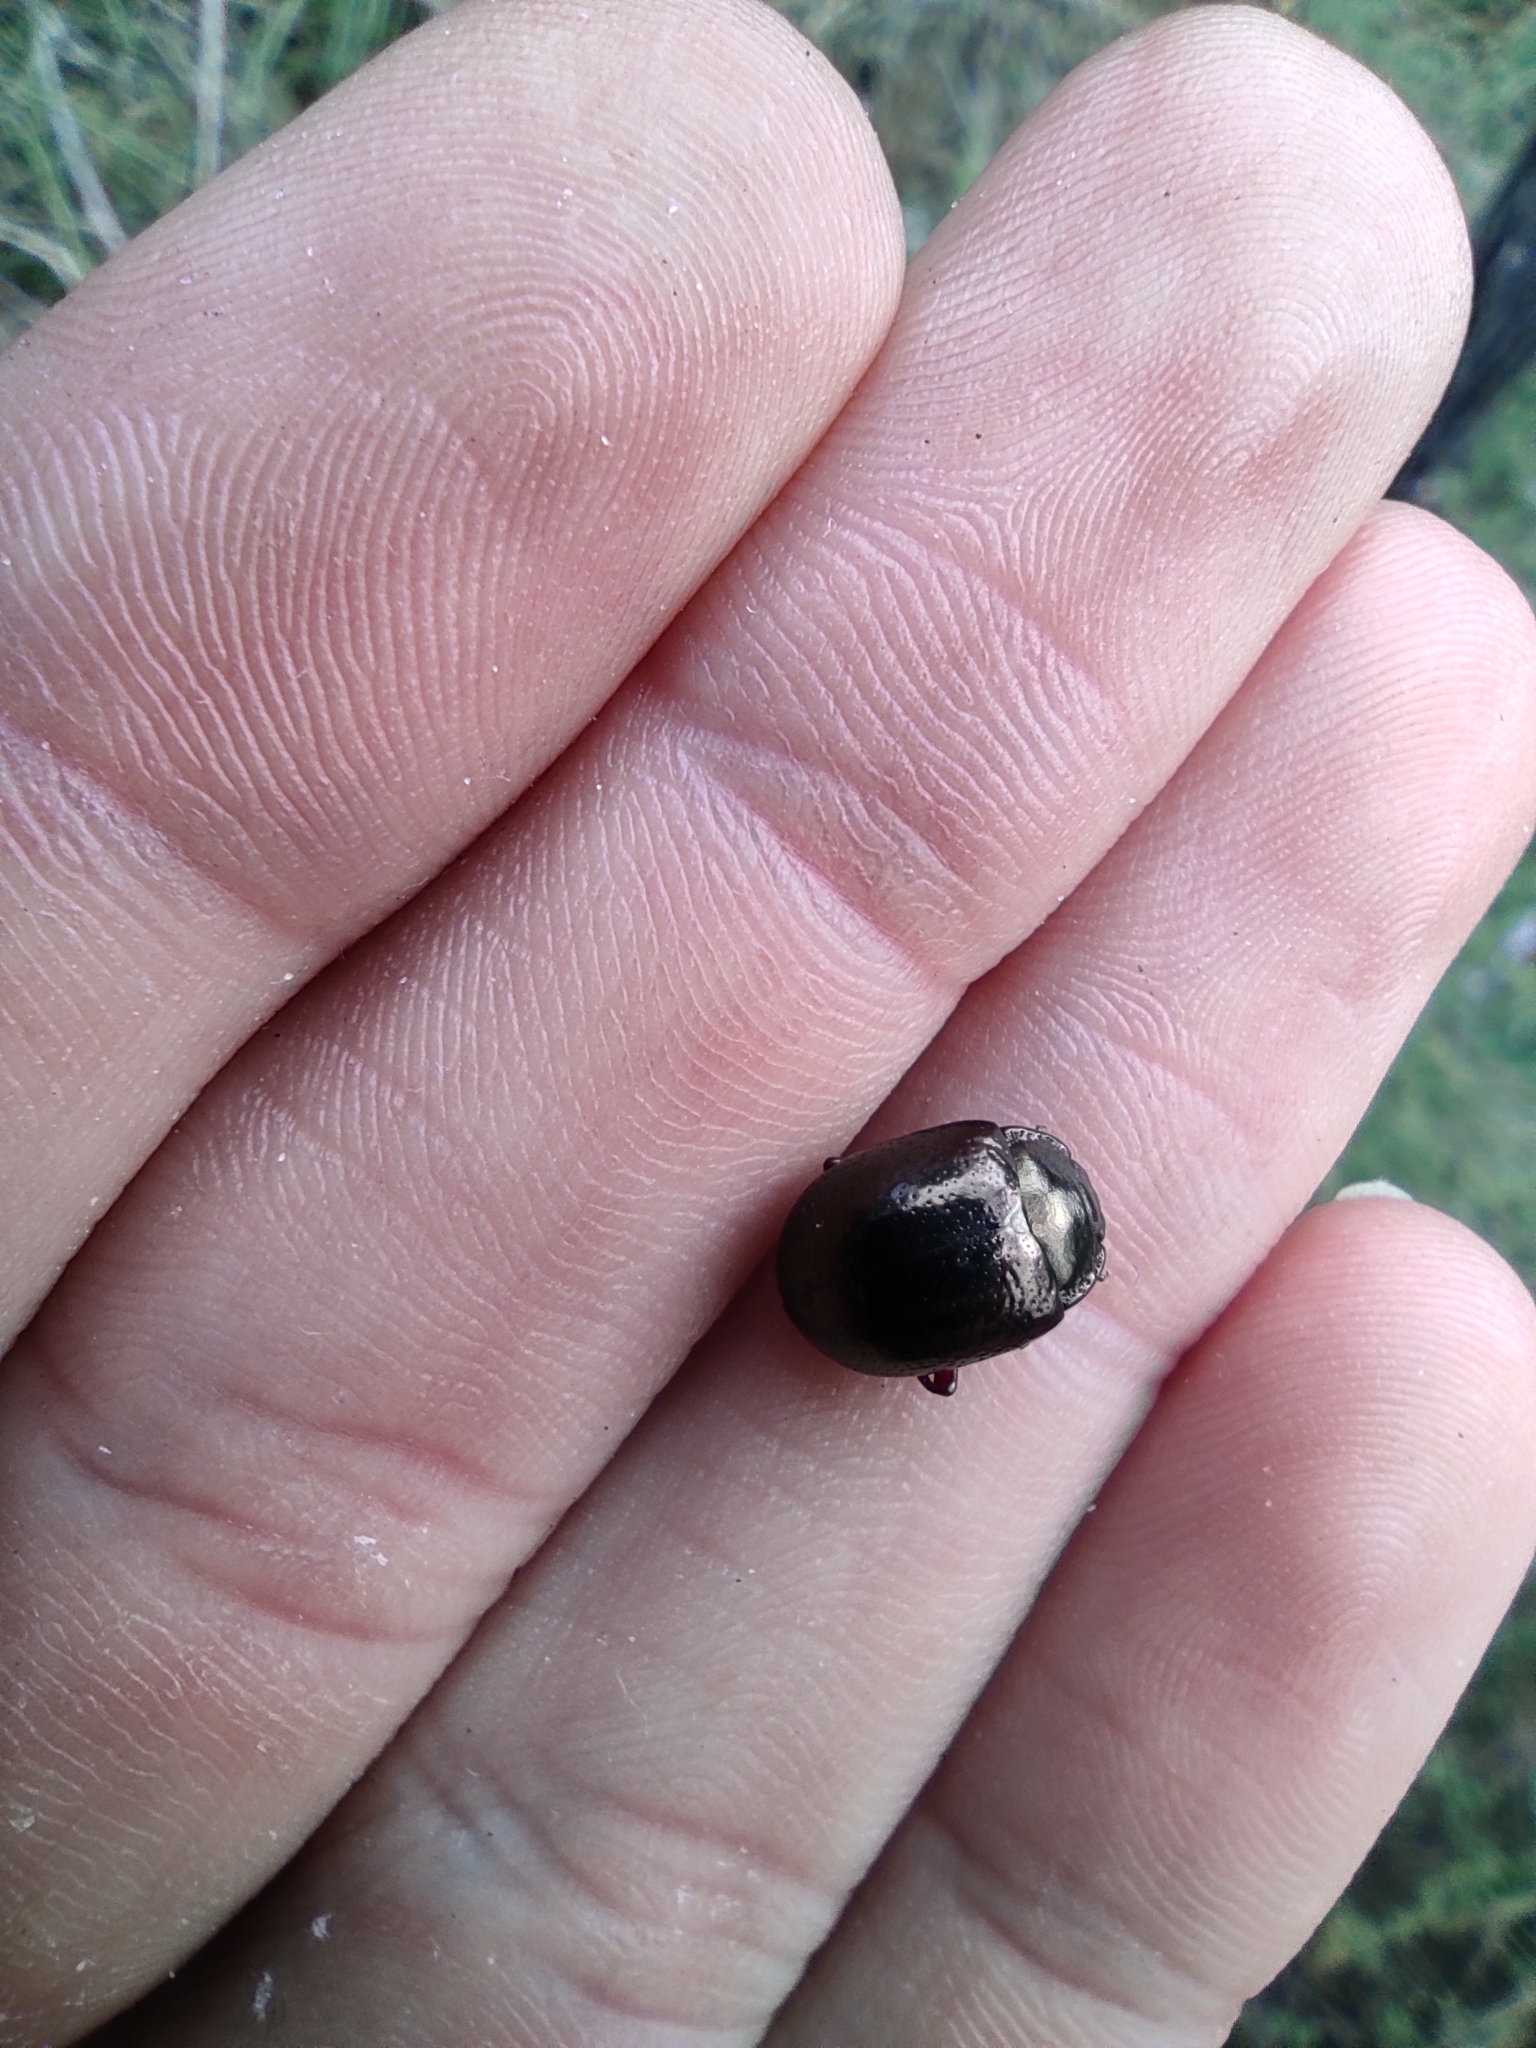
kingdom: Animalia
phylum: Arthropoda
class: Insecta
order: Coleoptera
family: Chrysomelidae
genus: Chrysolina
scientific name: Chrysolina bankii
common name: Leaf beetle
